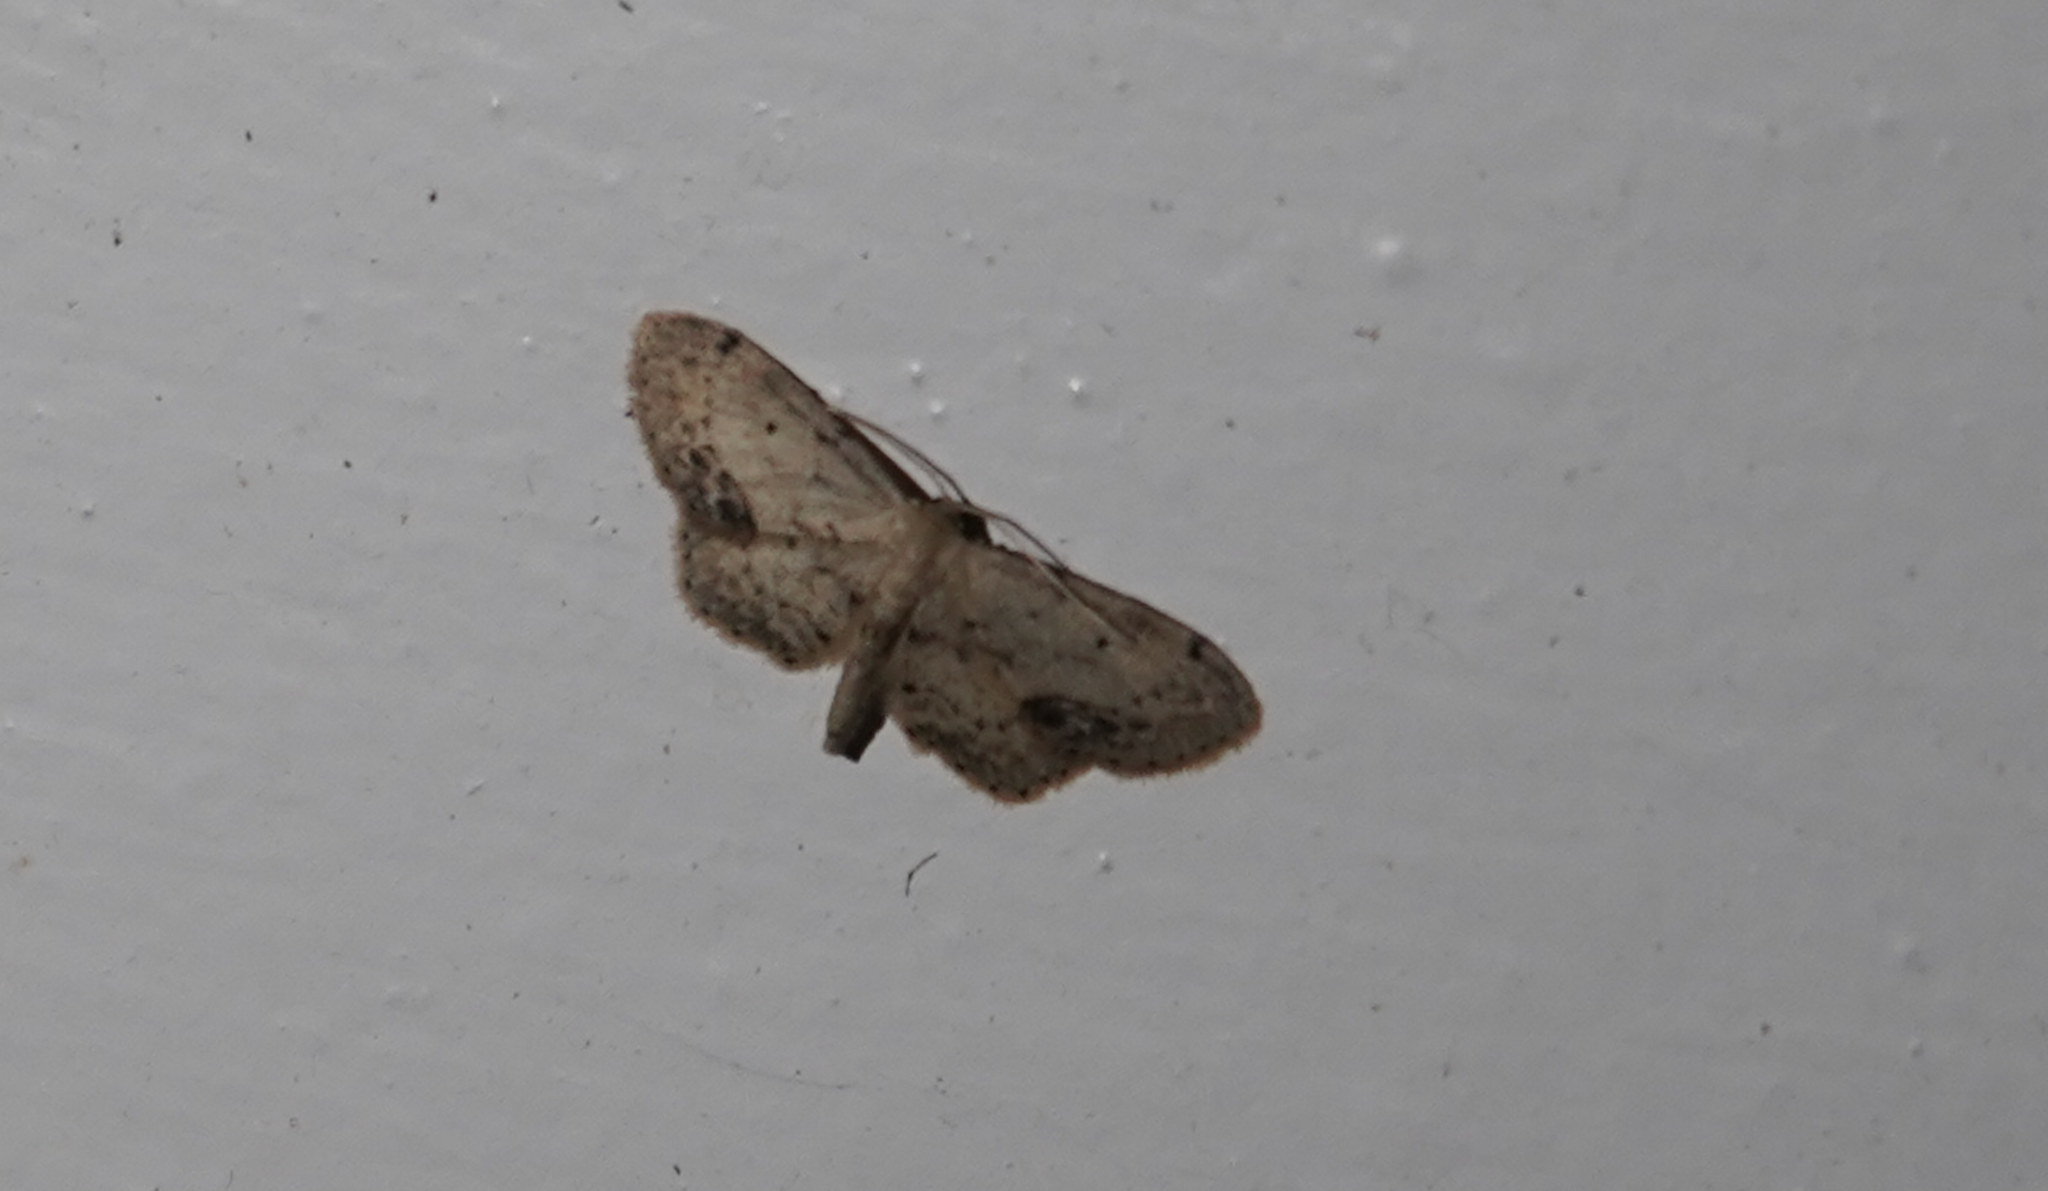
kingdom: Animalia
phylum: Arthropoda
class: Insecta
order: Lepidoptera
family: Geometridae
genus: Idaea
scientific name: Idaea dimidiata
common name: Single-dotted wave
